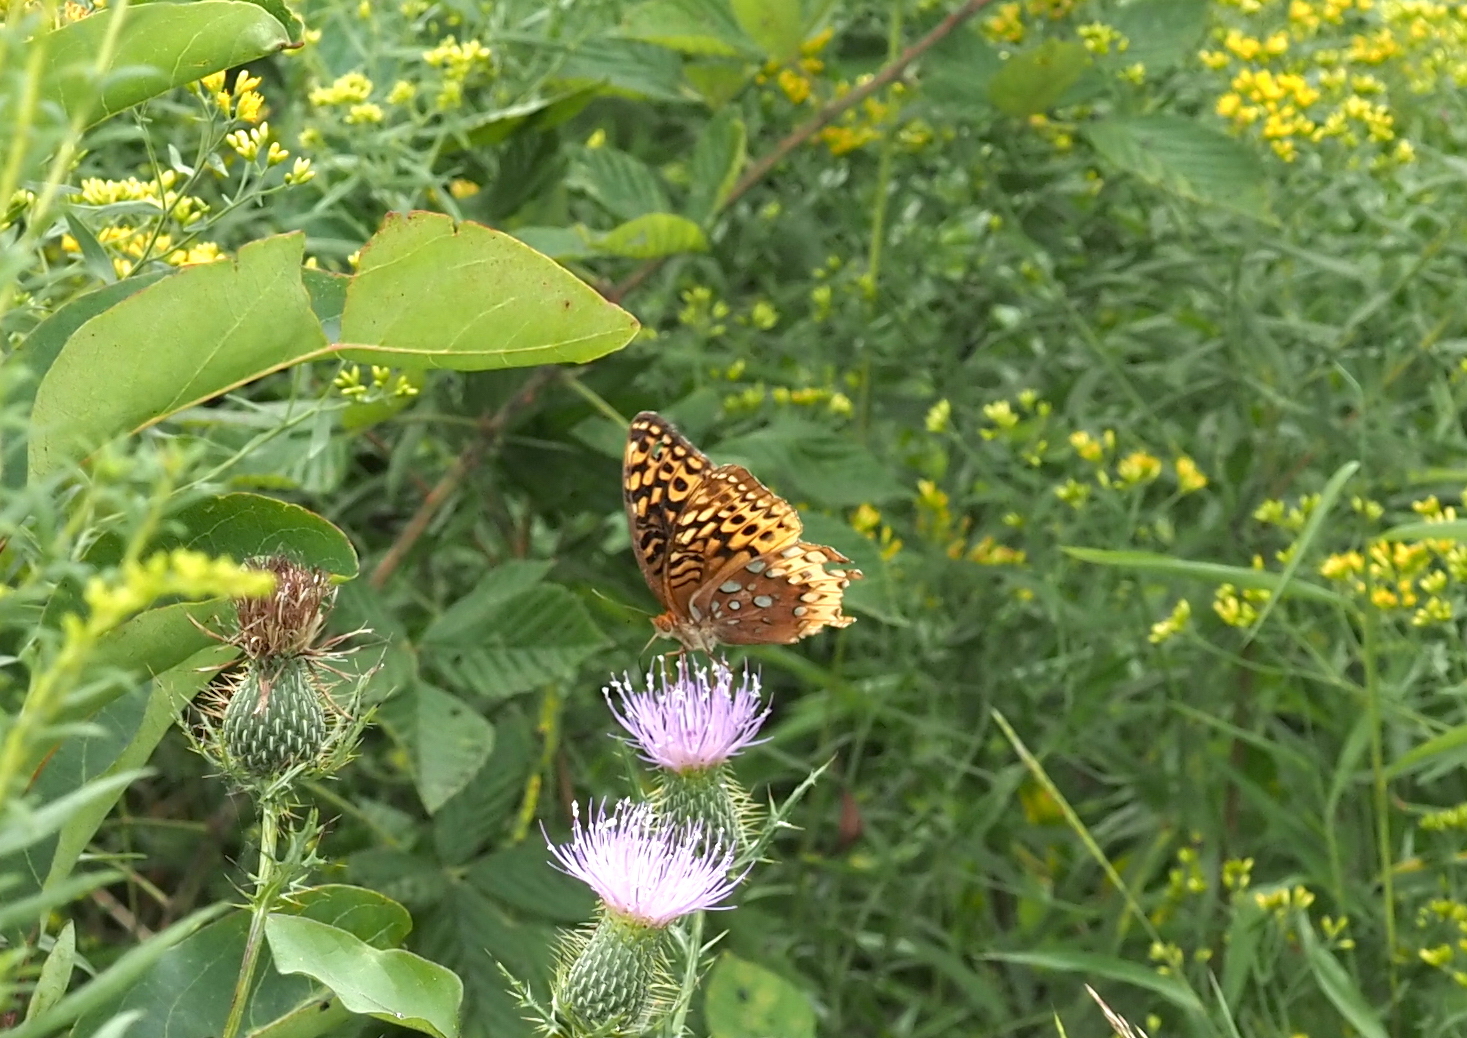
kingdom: Animalia
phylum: Arthropoda
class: Insecta
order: Lepidoptera
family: Nymphalidae
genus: Speyeria
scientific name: Speyeria cybele
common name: Great spangled fritillary
